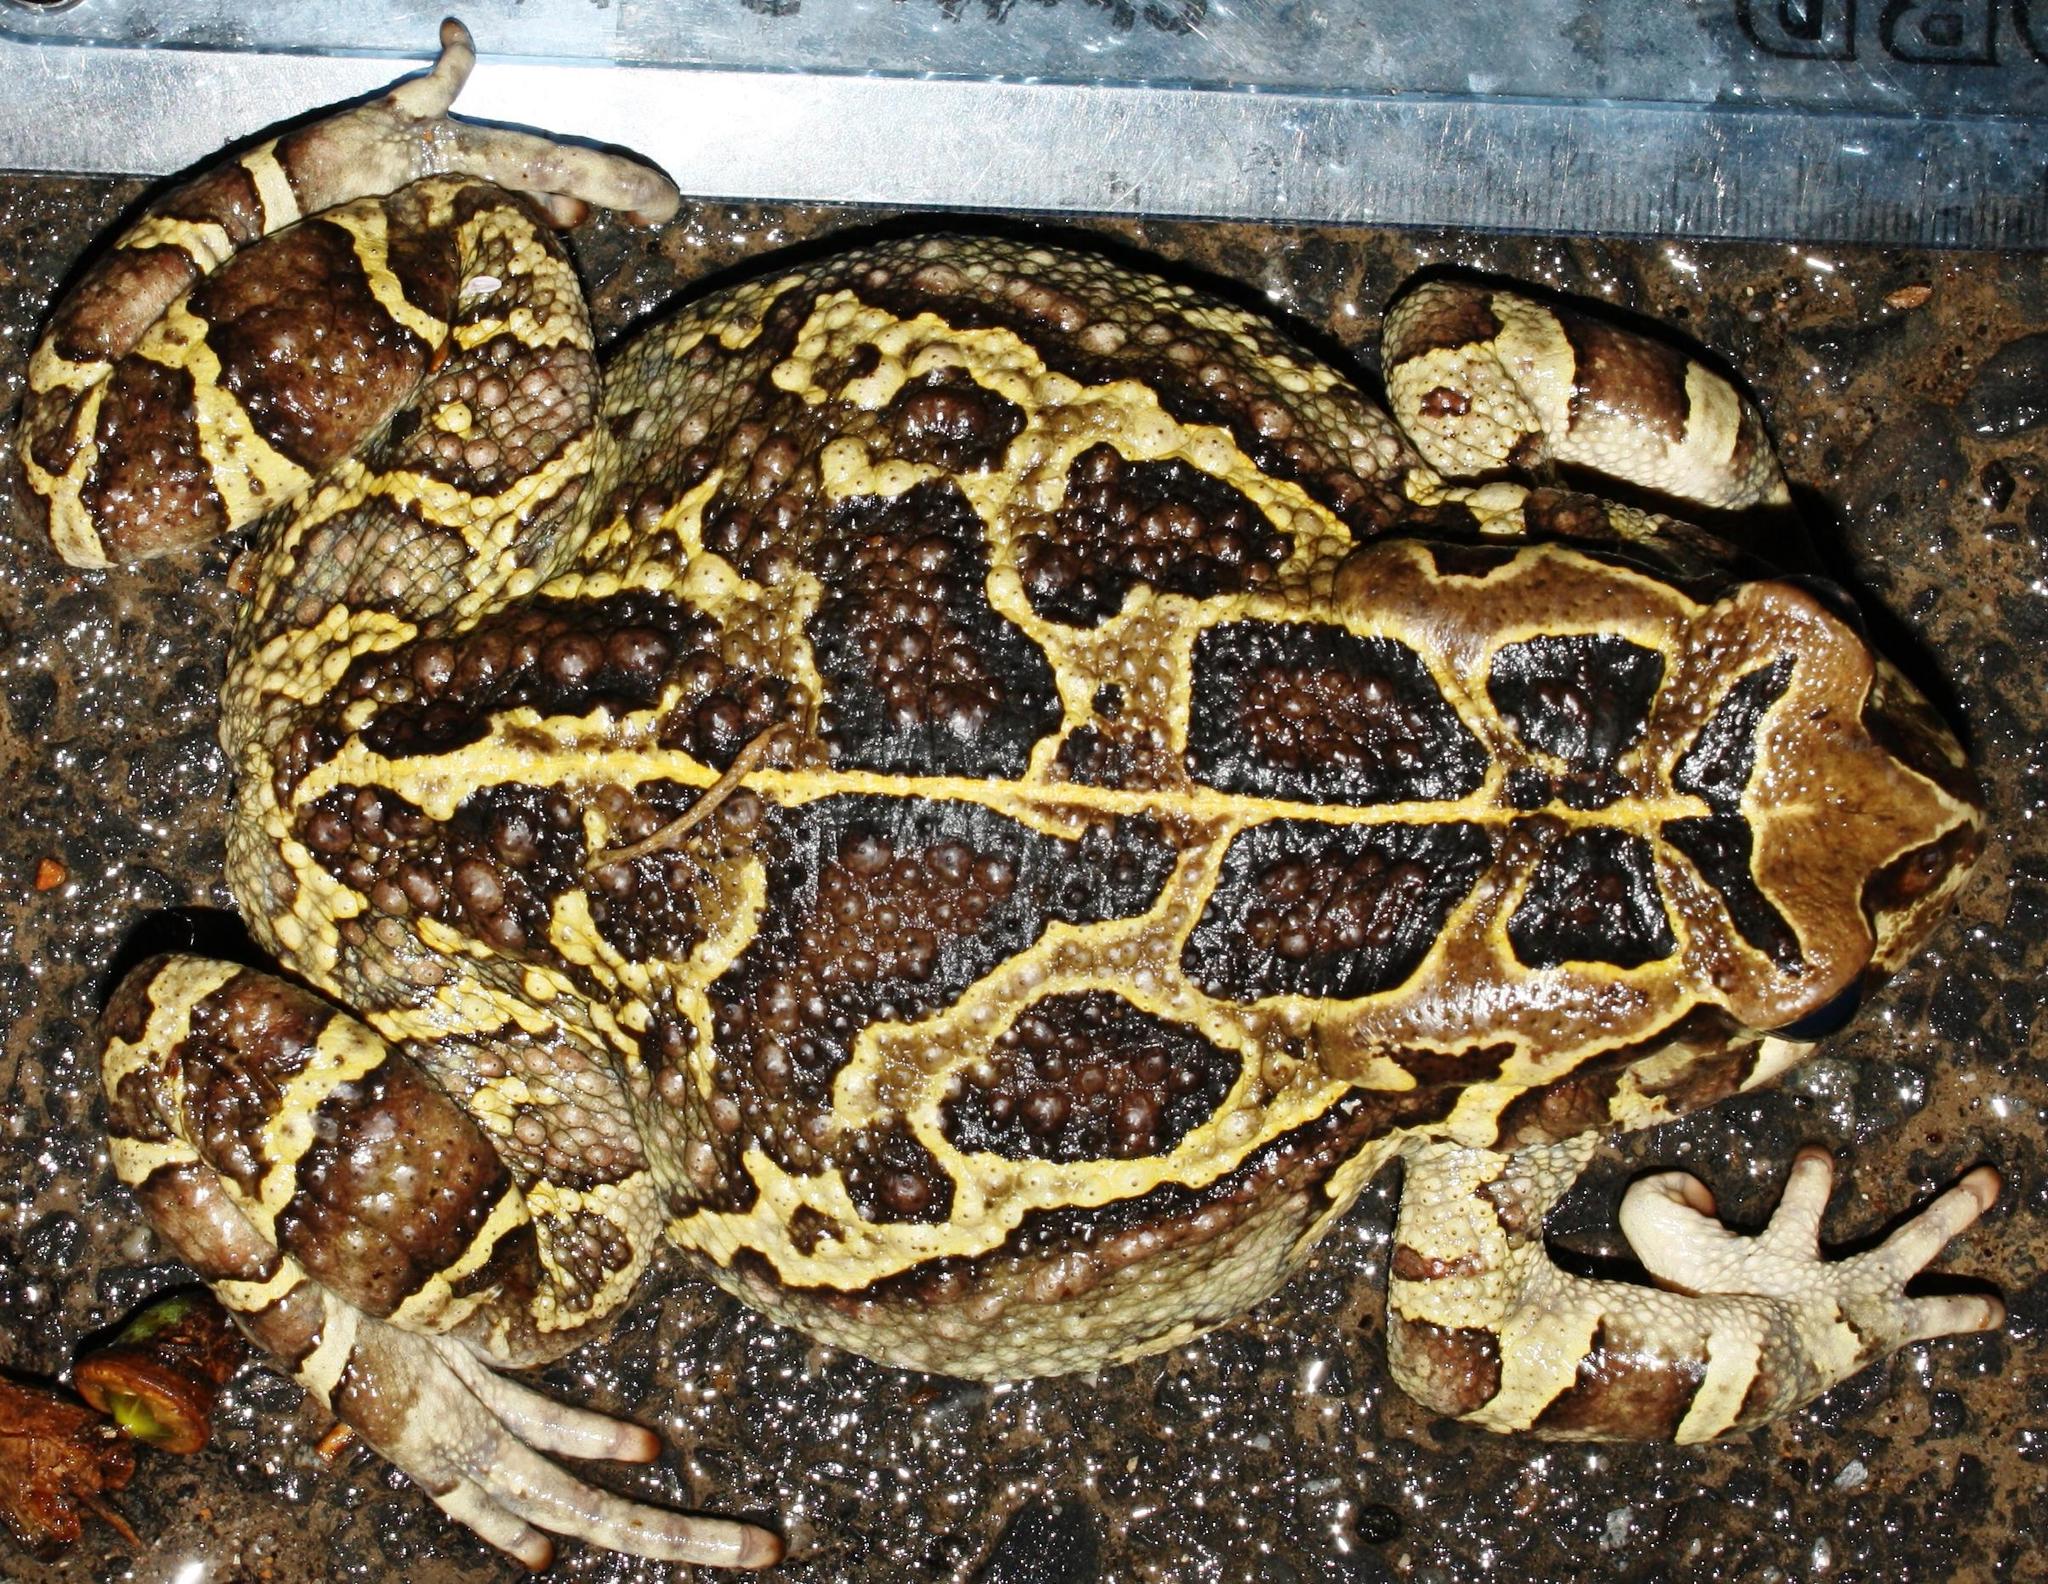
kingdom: Animalia
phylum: Chordata
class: Amphibia
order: Anura
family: Bufonidae
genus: Sclerophrys
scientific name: Sclerophrys pantherina
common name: Panther toad
